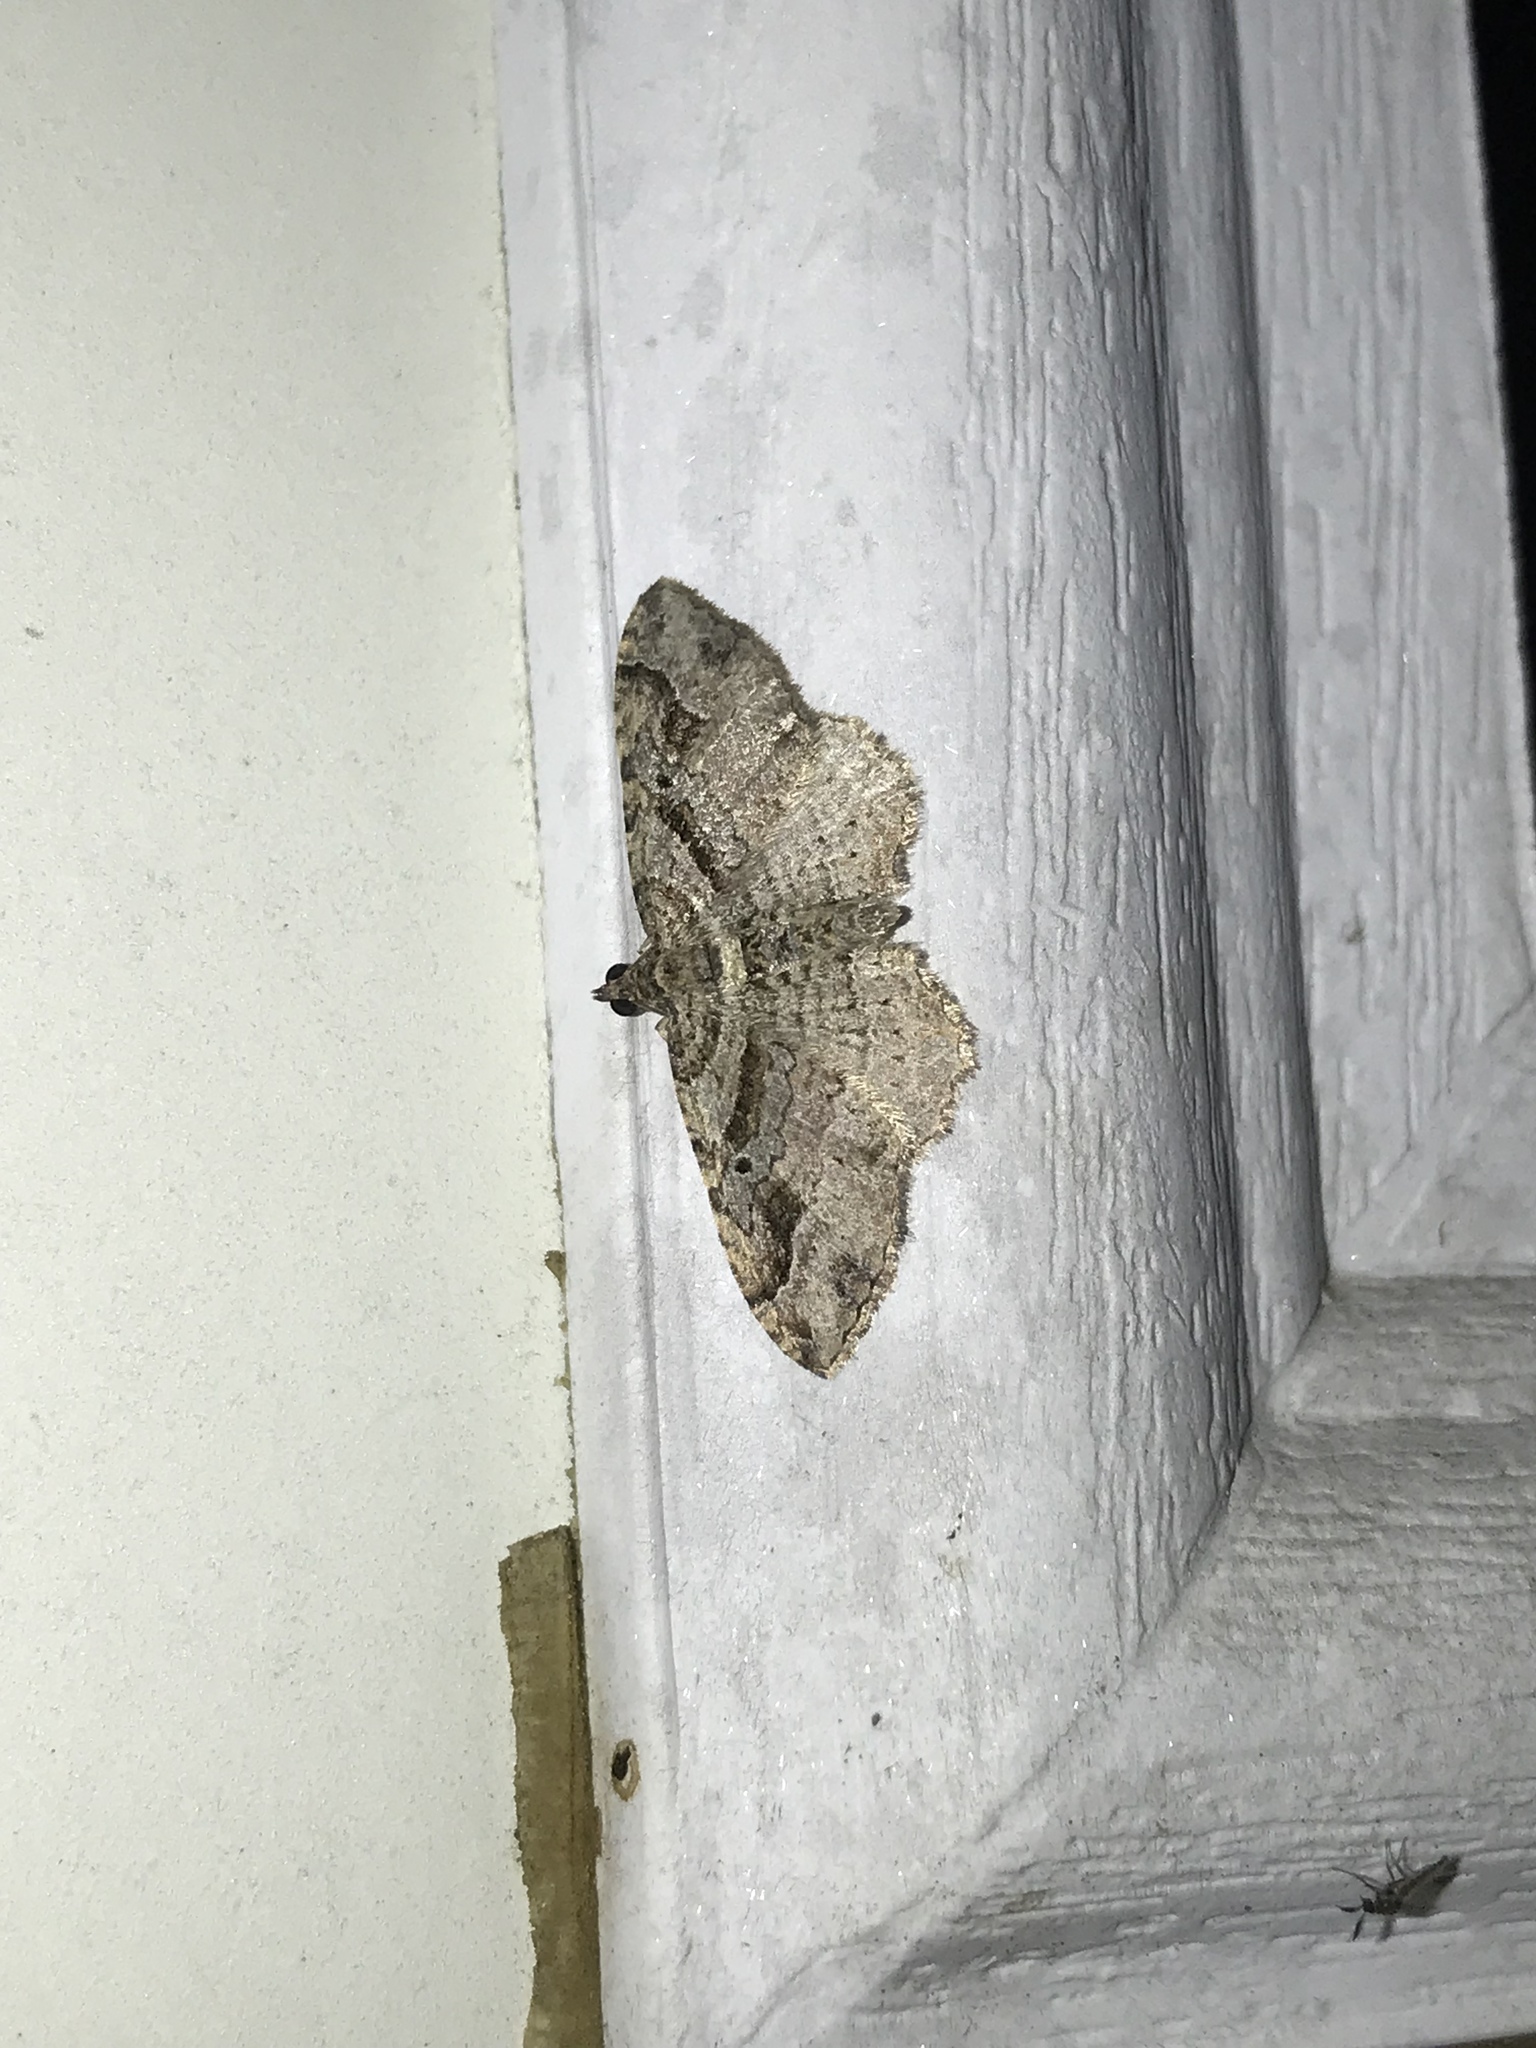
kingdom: Animalia
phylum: Arthropoda
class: Insecta
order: Lepidoptera
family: Geometridae
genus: Costaconvexa
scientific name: Costaconvexa centrostrigaria
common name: Bent-line carpet
